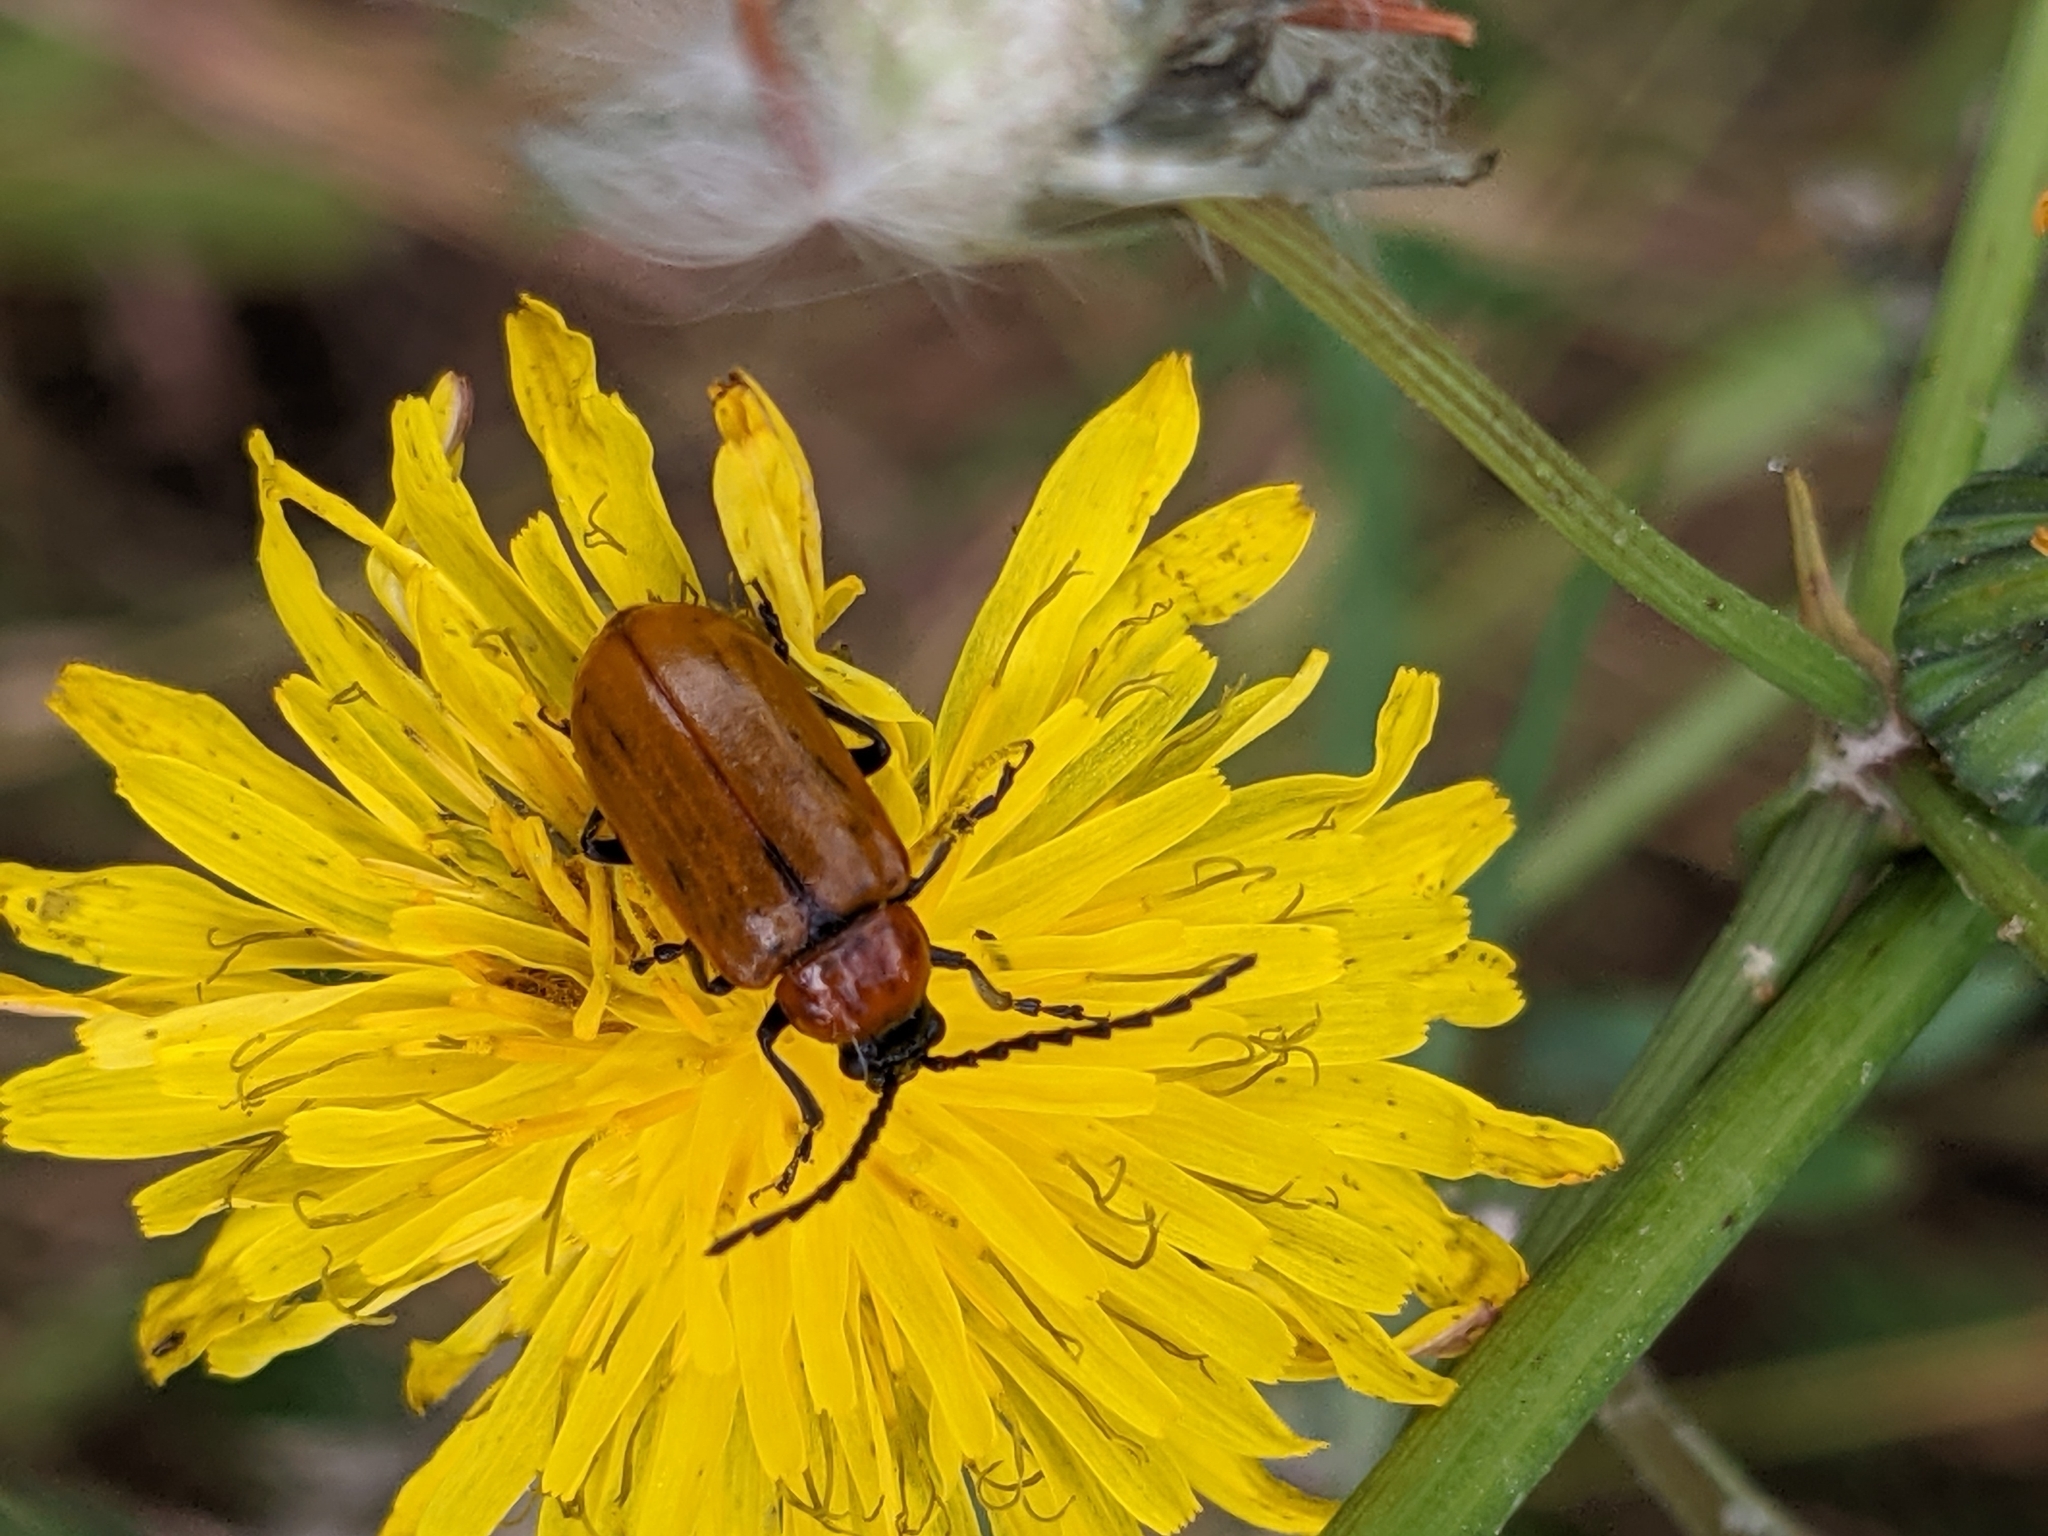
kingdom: Animalia
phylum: Arthropoda
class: Insecta
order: Coleoptera
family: Chrysomelidae
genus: Exosoma
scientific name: Exosoma lusitanicum
